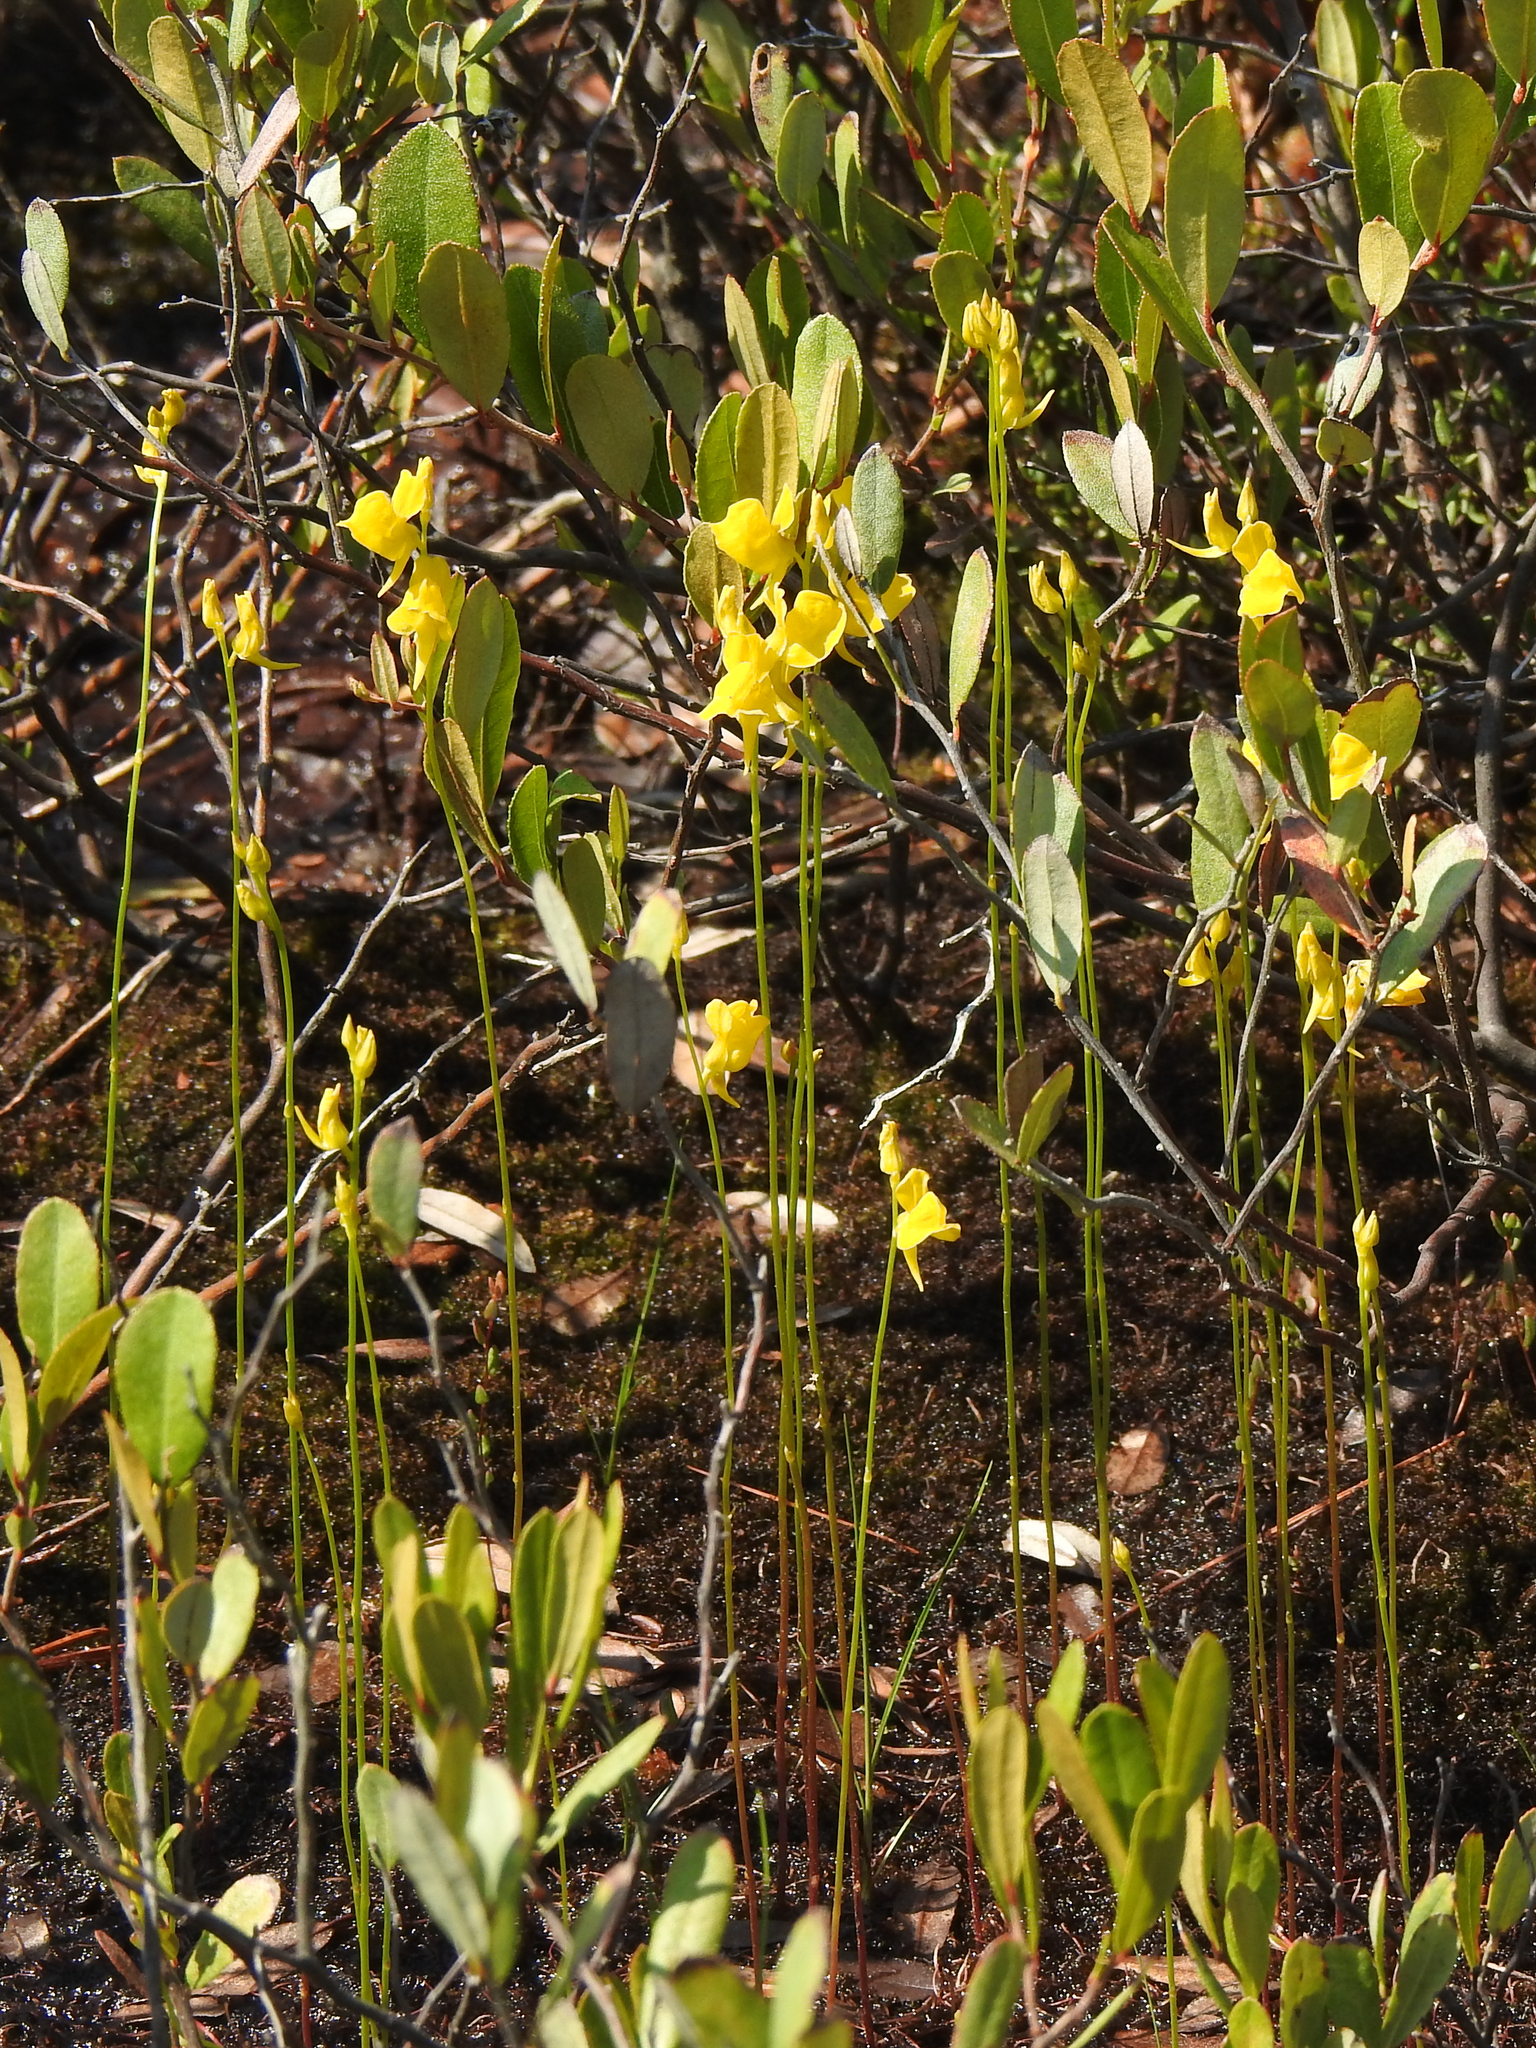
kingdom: Plantae
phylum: Tracheophyta
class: Magnoliopsida
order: Lamiales
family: Lentibulariaceae
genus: Utricularia
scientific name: Utricularia cornuta
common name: Horned bladderwort
